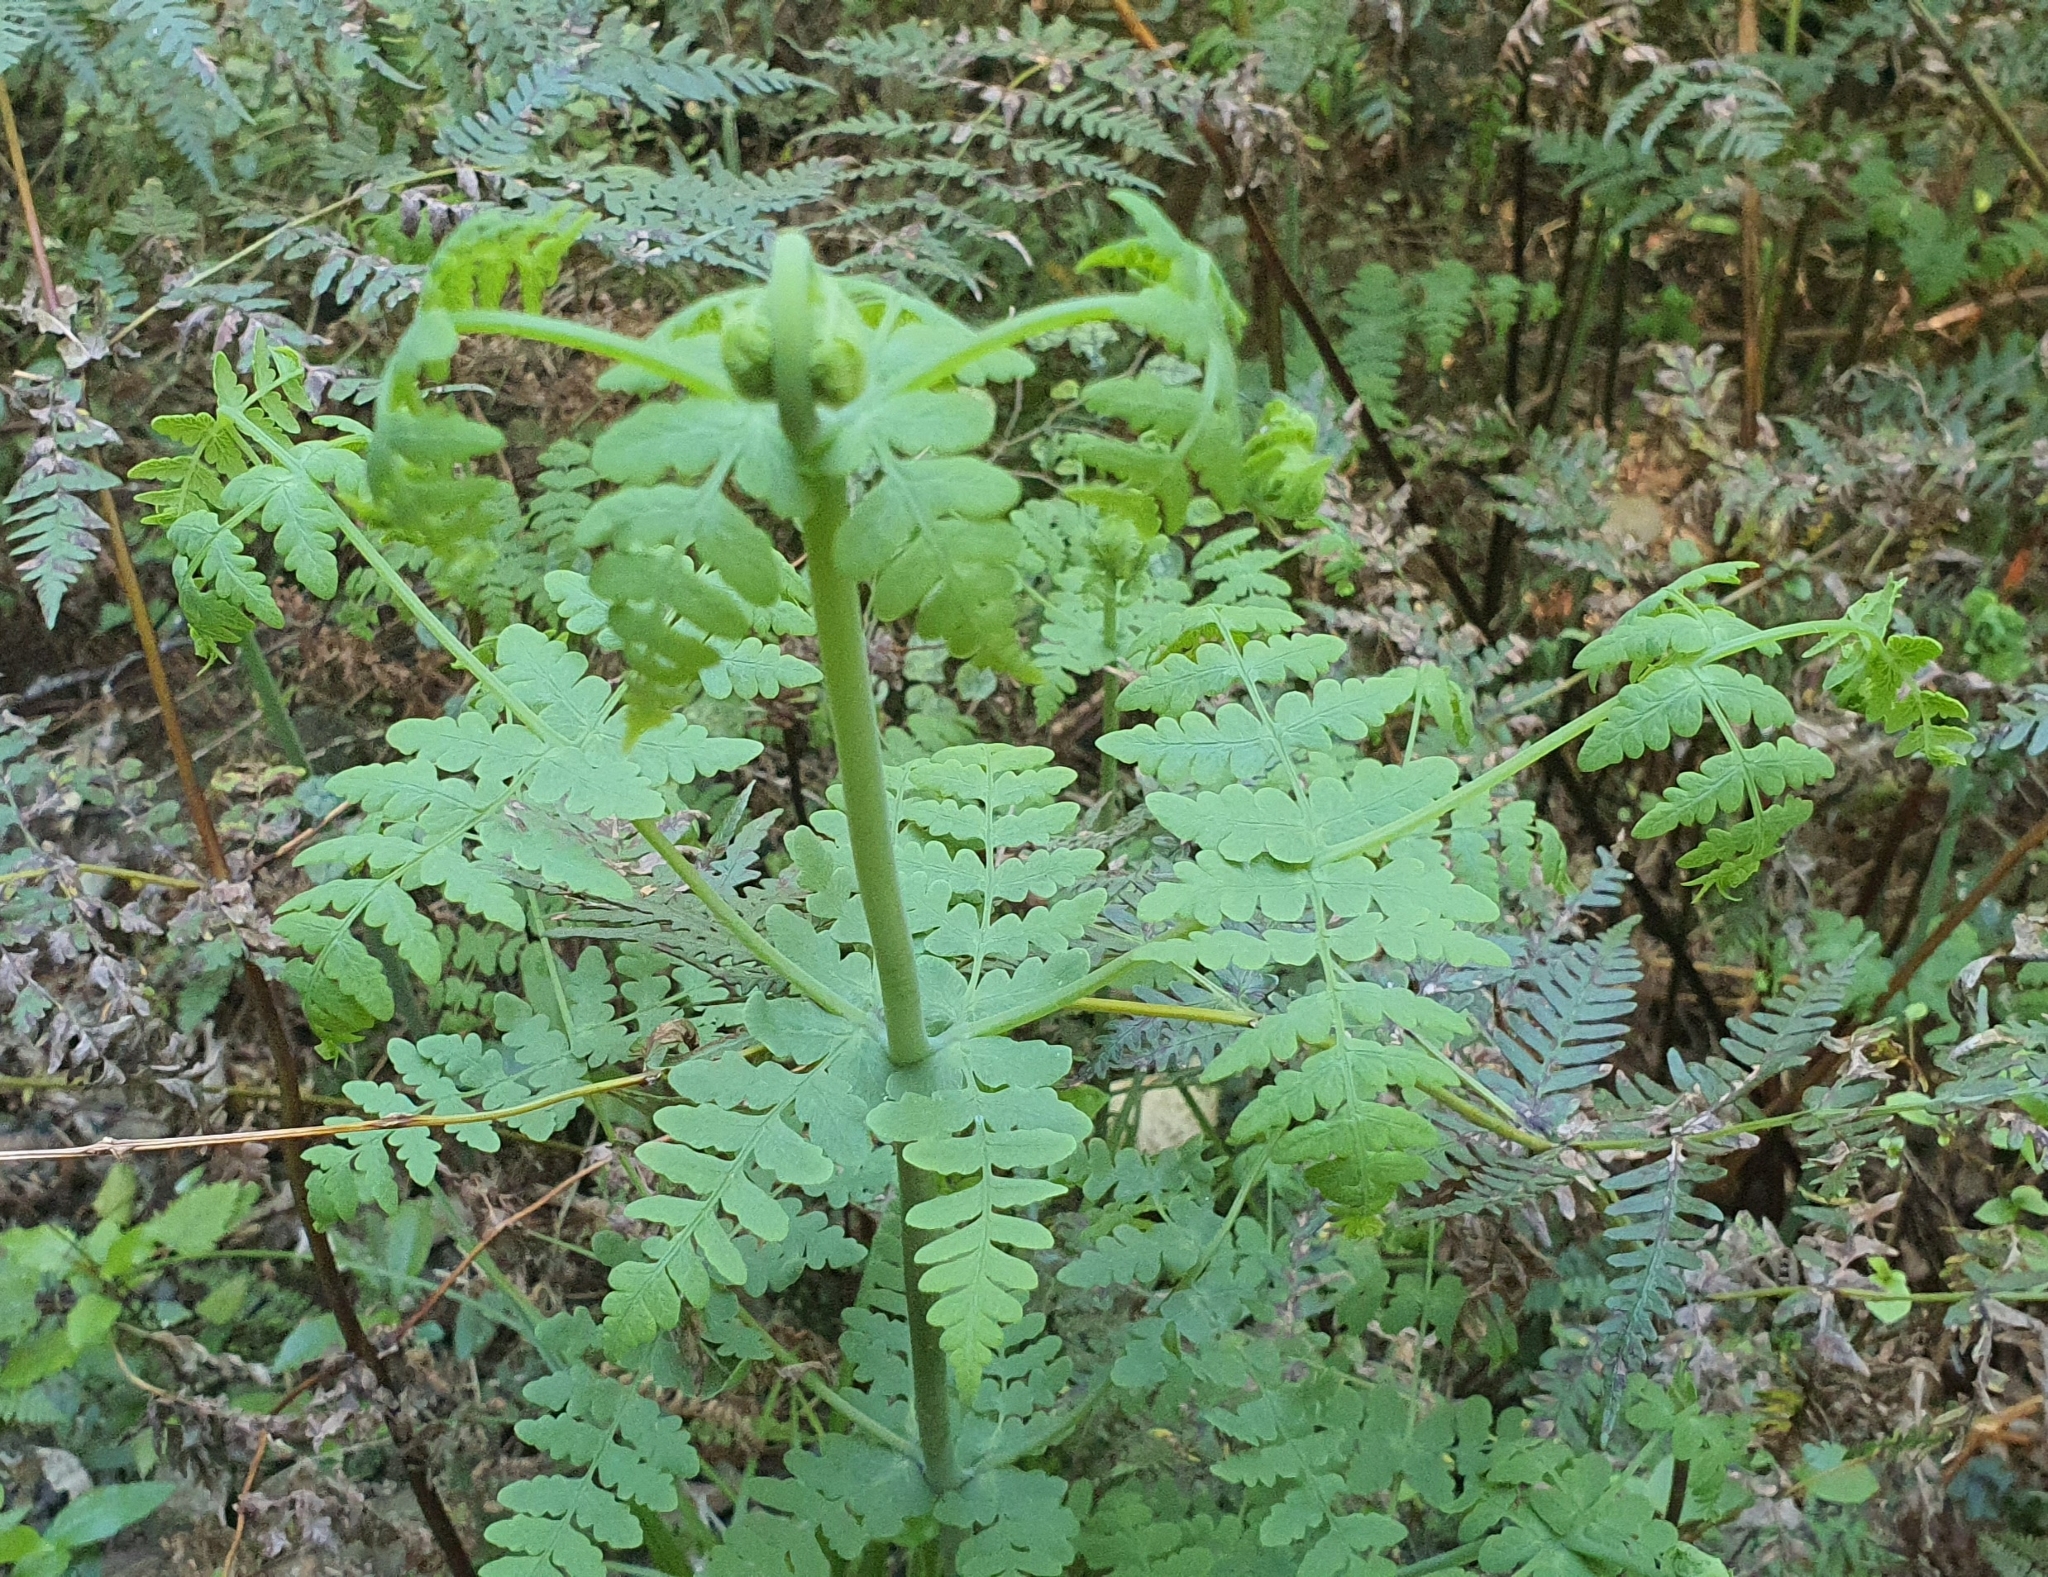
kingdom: Plantae
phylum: Tracheophyta
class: Polypodiopsida
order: Polypodiales
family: Dennstaedtiaceae
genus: Histiopteris
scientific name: Histiopteris incisa
